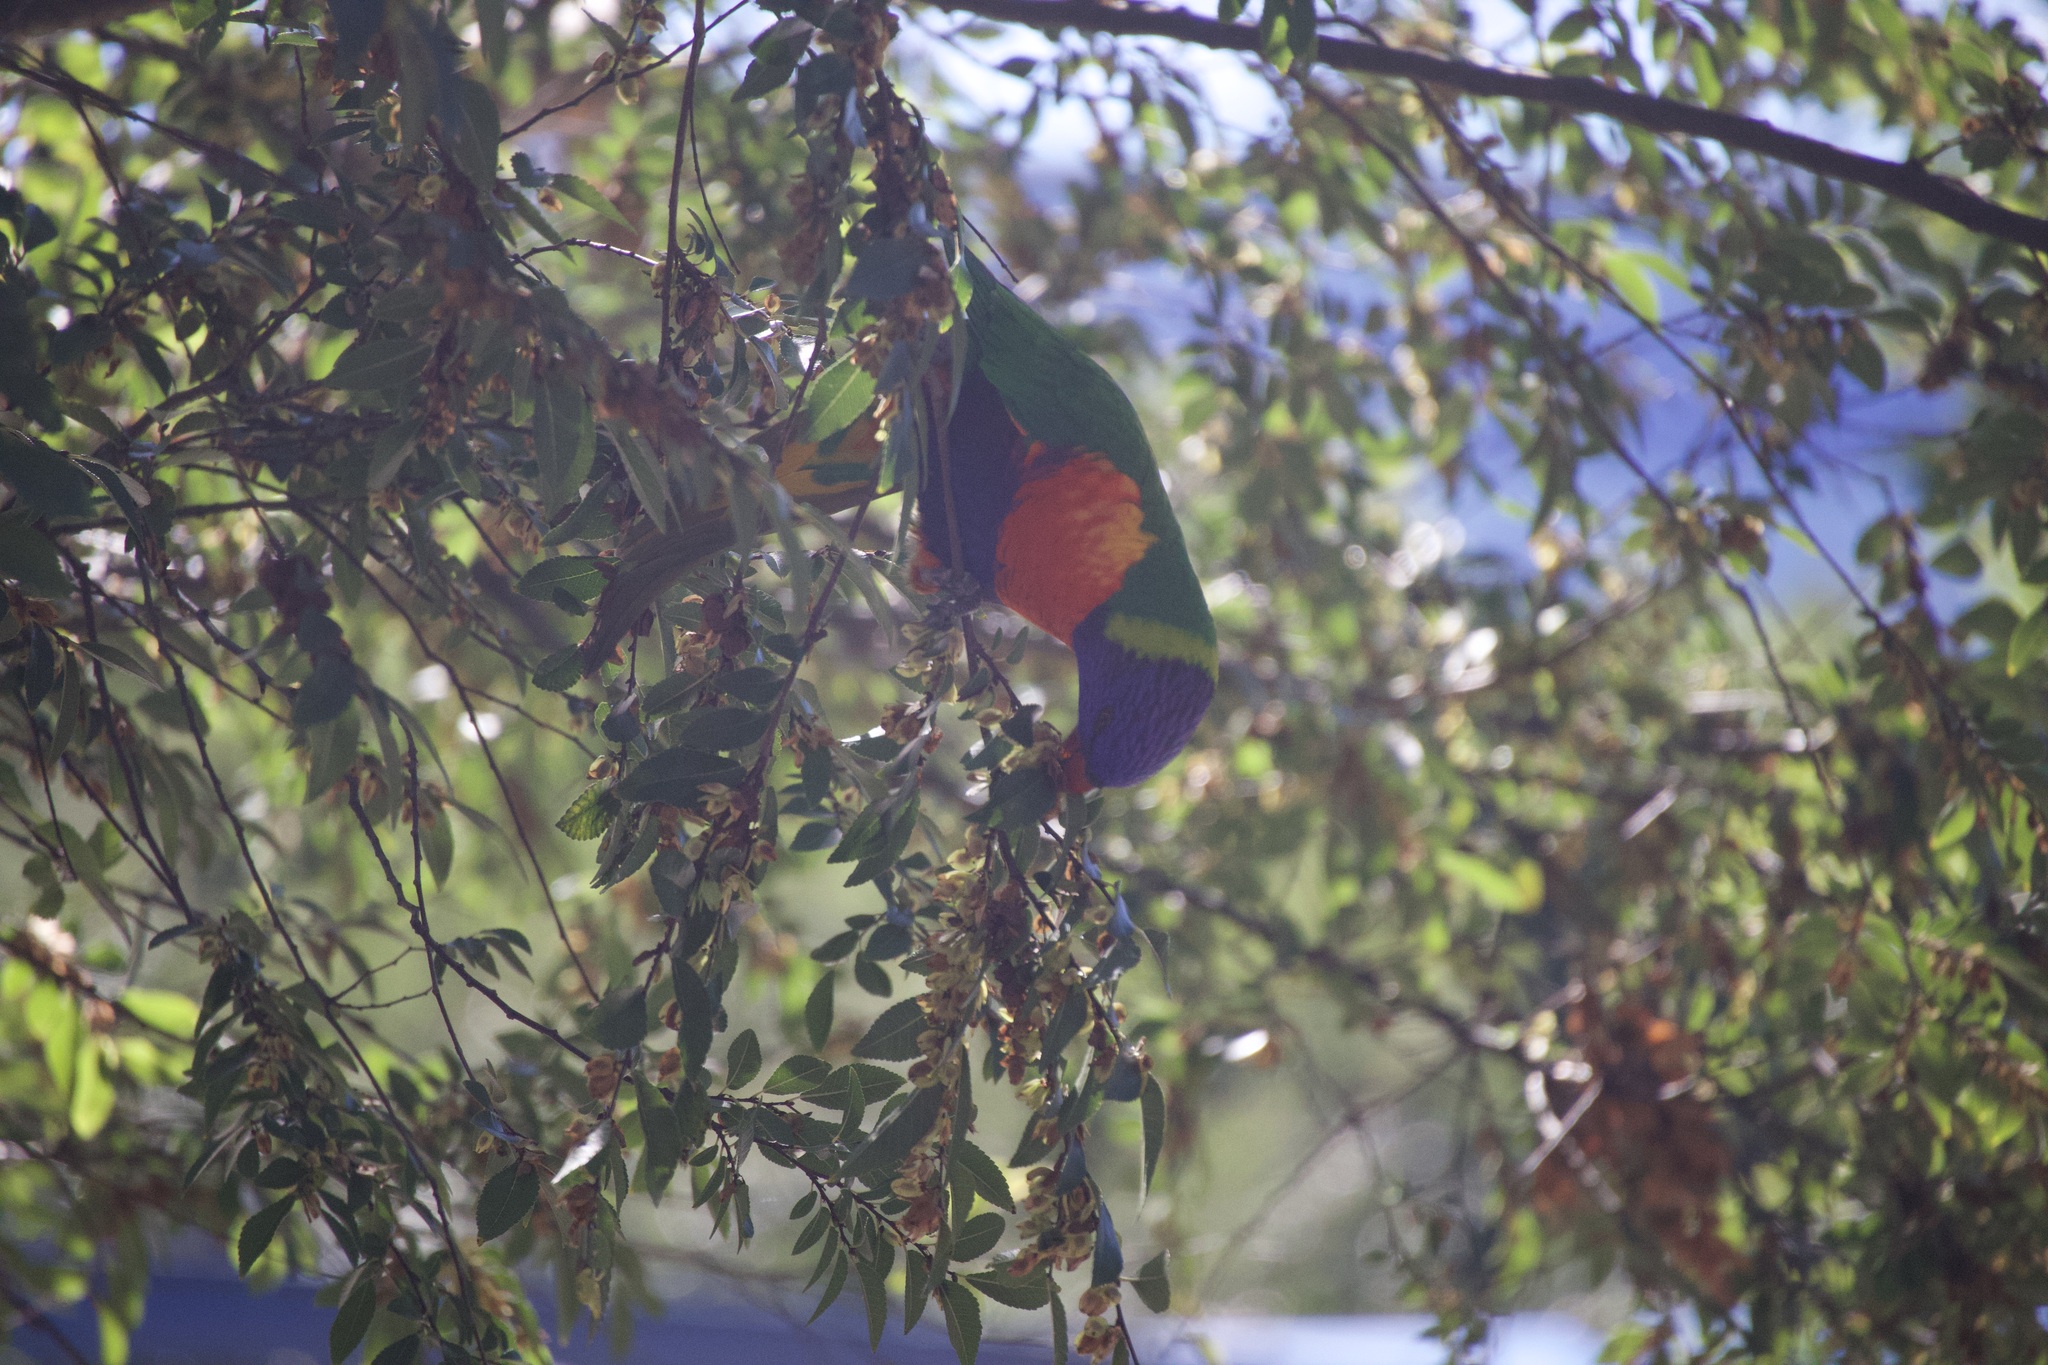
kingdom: Animalia
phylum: Chordata
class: Aves
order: Psittaciformes
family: Psittacidae
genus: Trichoglossus
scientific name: Trichoglossus haematodus
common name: Coconut lorikeet
